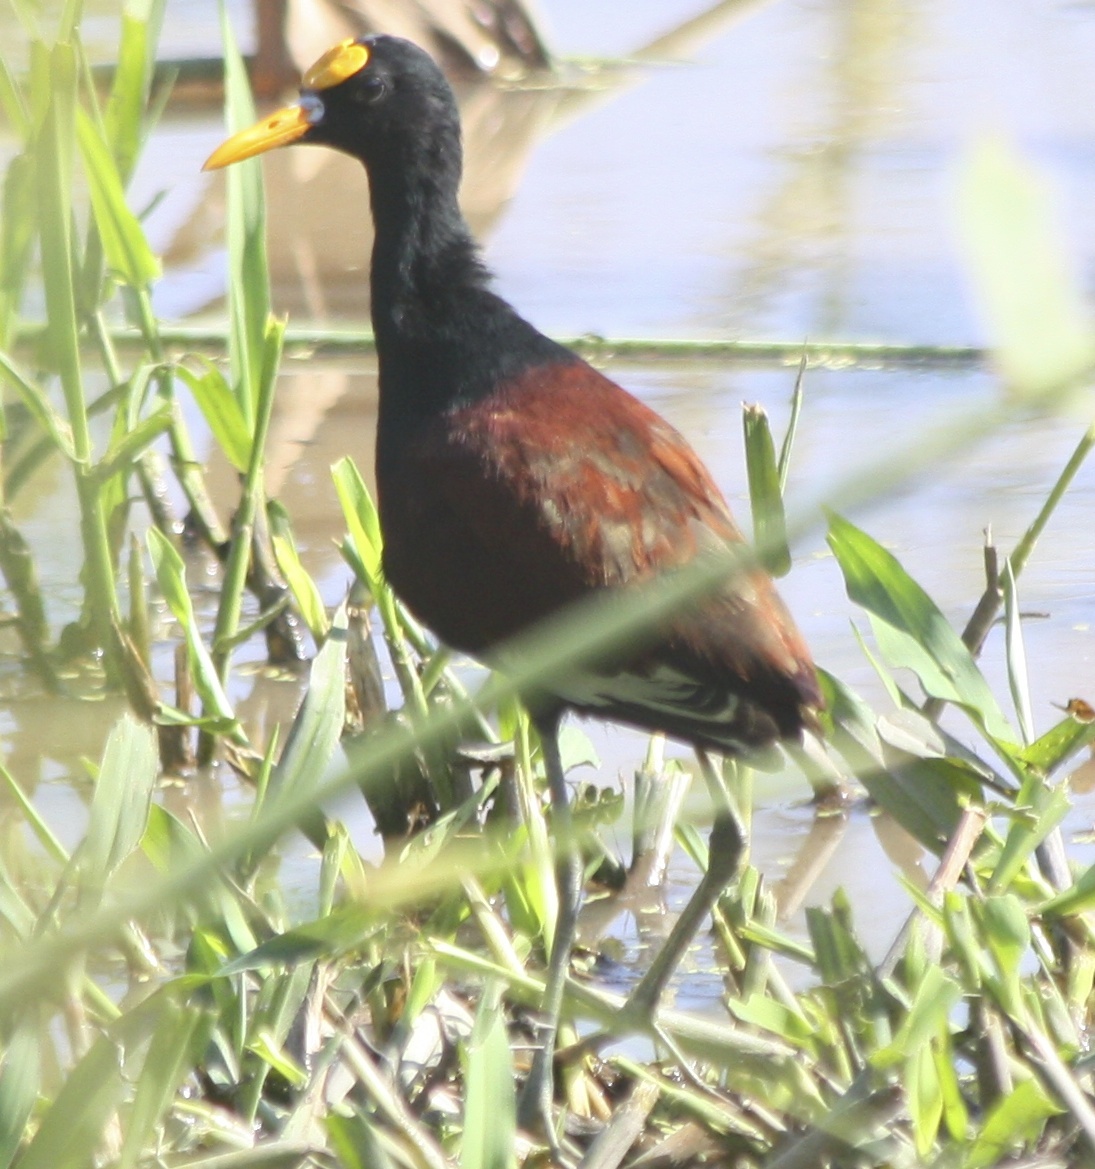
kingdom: Animalia
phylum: Chordata
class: Aves
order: Charadriiformes
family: Jacanidae
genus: Jacana
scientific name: Jacana spinosa
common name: Northern jacana
